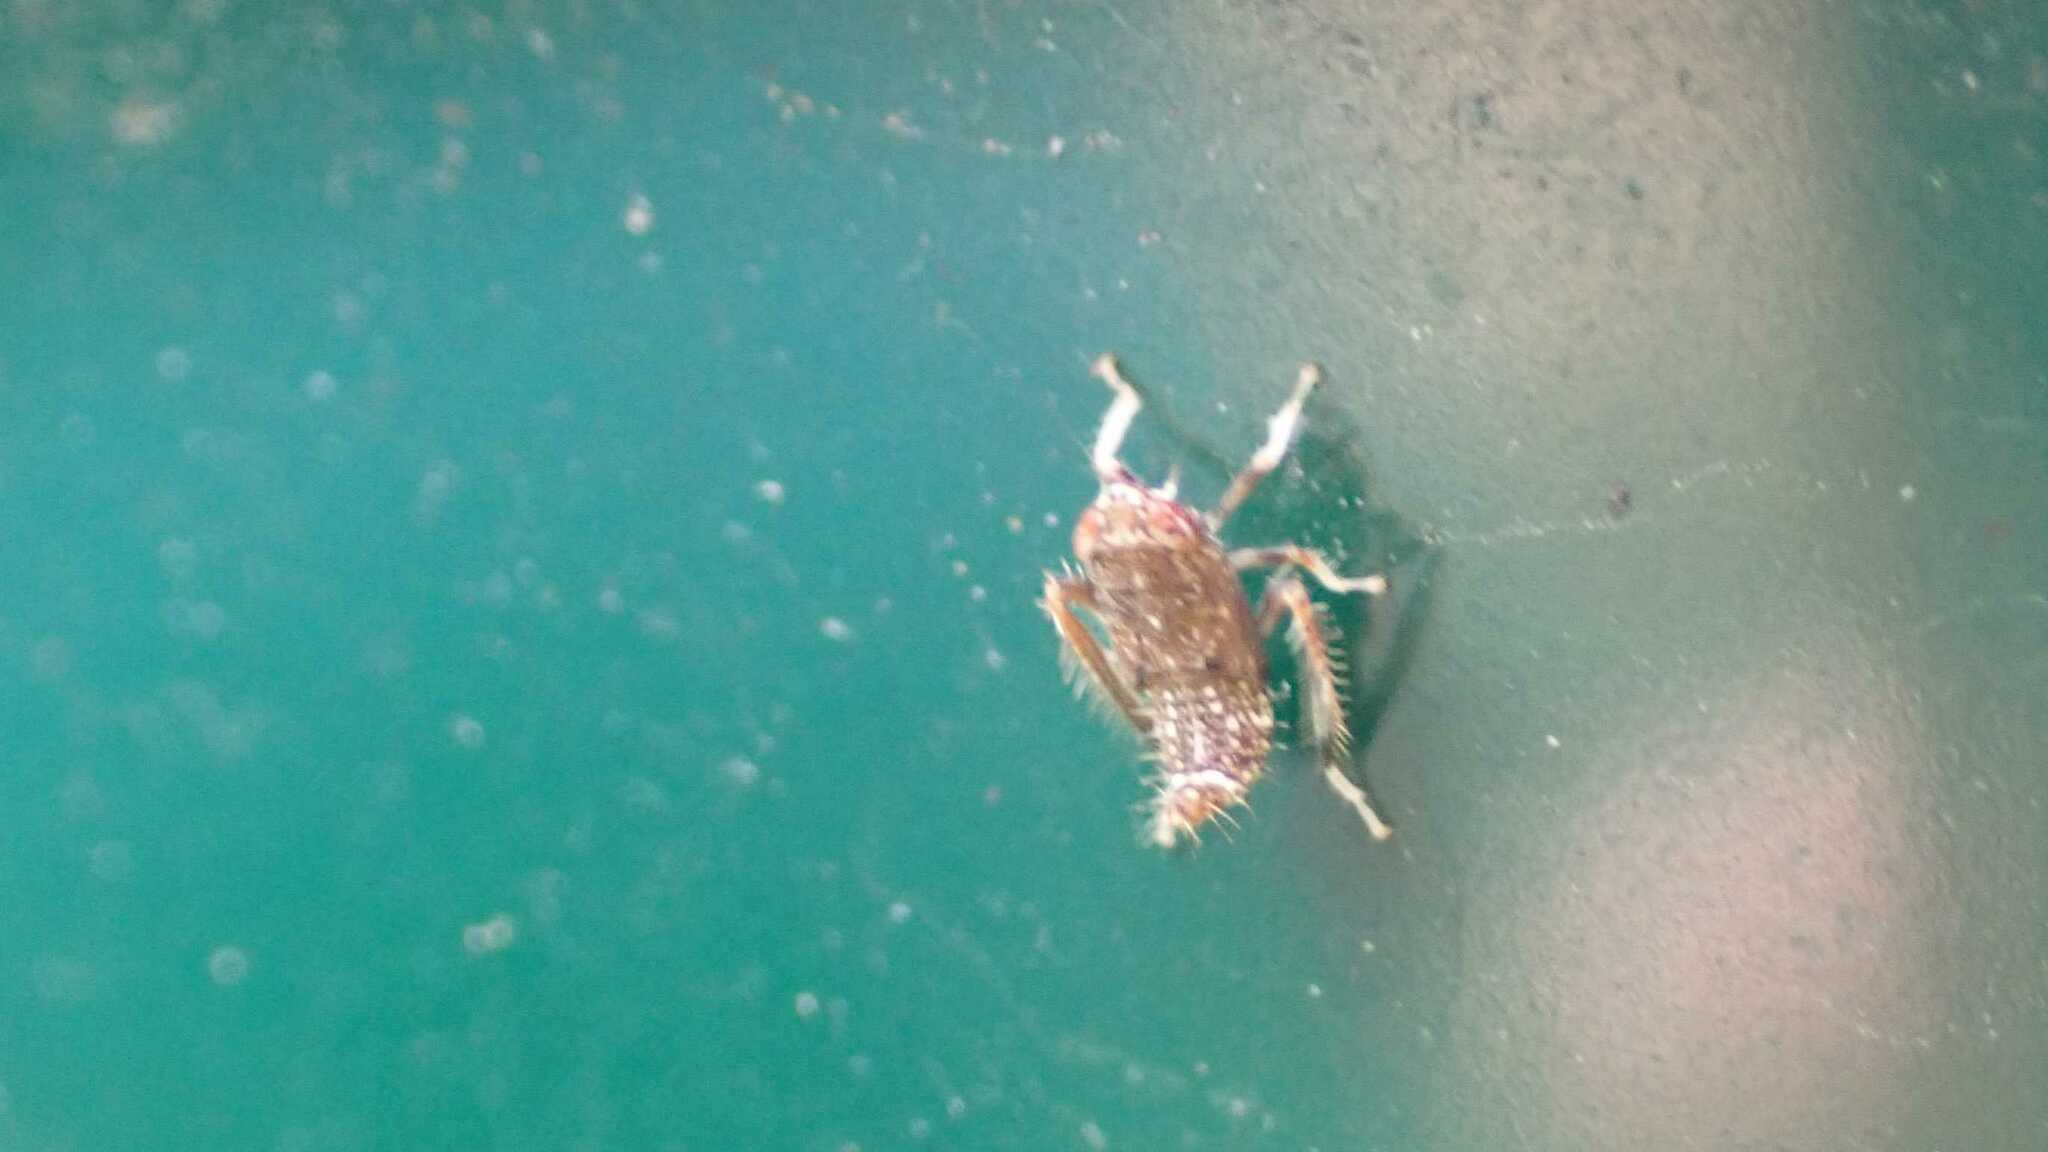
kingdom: Animalia
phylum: Arthropoda
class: Insecta
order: Hemiptera
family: Cicadellidae
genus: Orientus
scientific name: Orientus ishidae
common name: Japanese leafhopper
